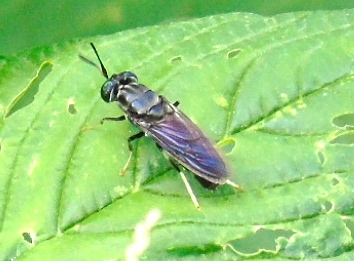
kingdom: Animalia
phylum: Arthropoda
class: Insecta
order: Diptera
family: Stratiomyidae
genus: Hermetia
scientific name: Hermetia illucens
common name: Black soldier fly
